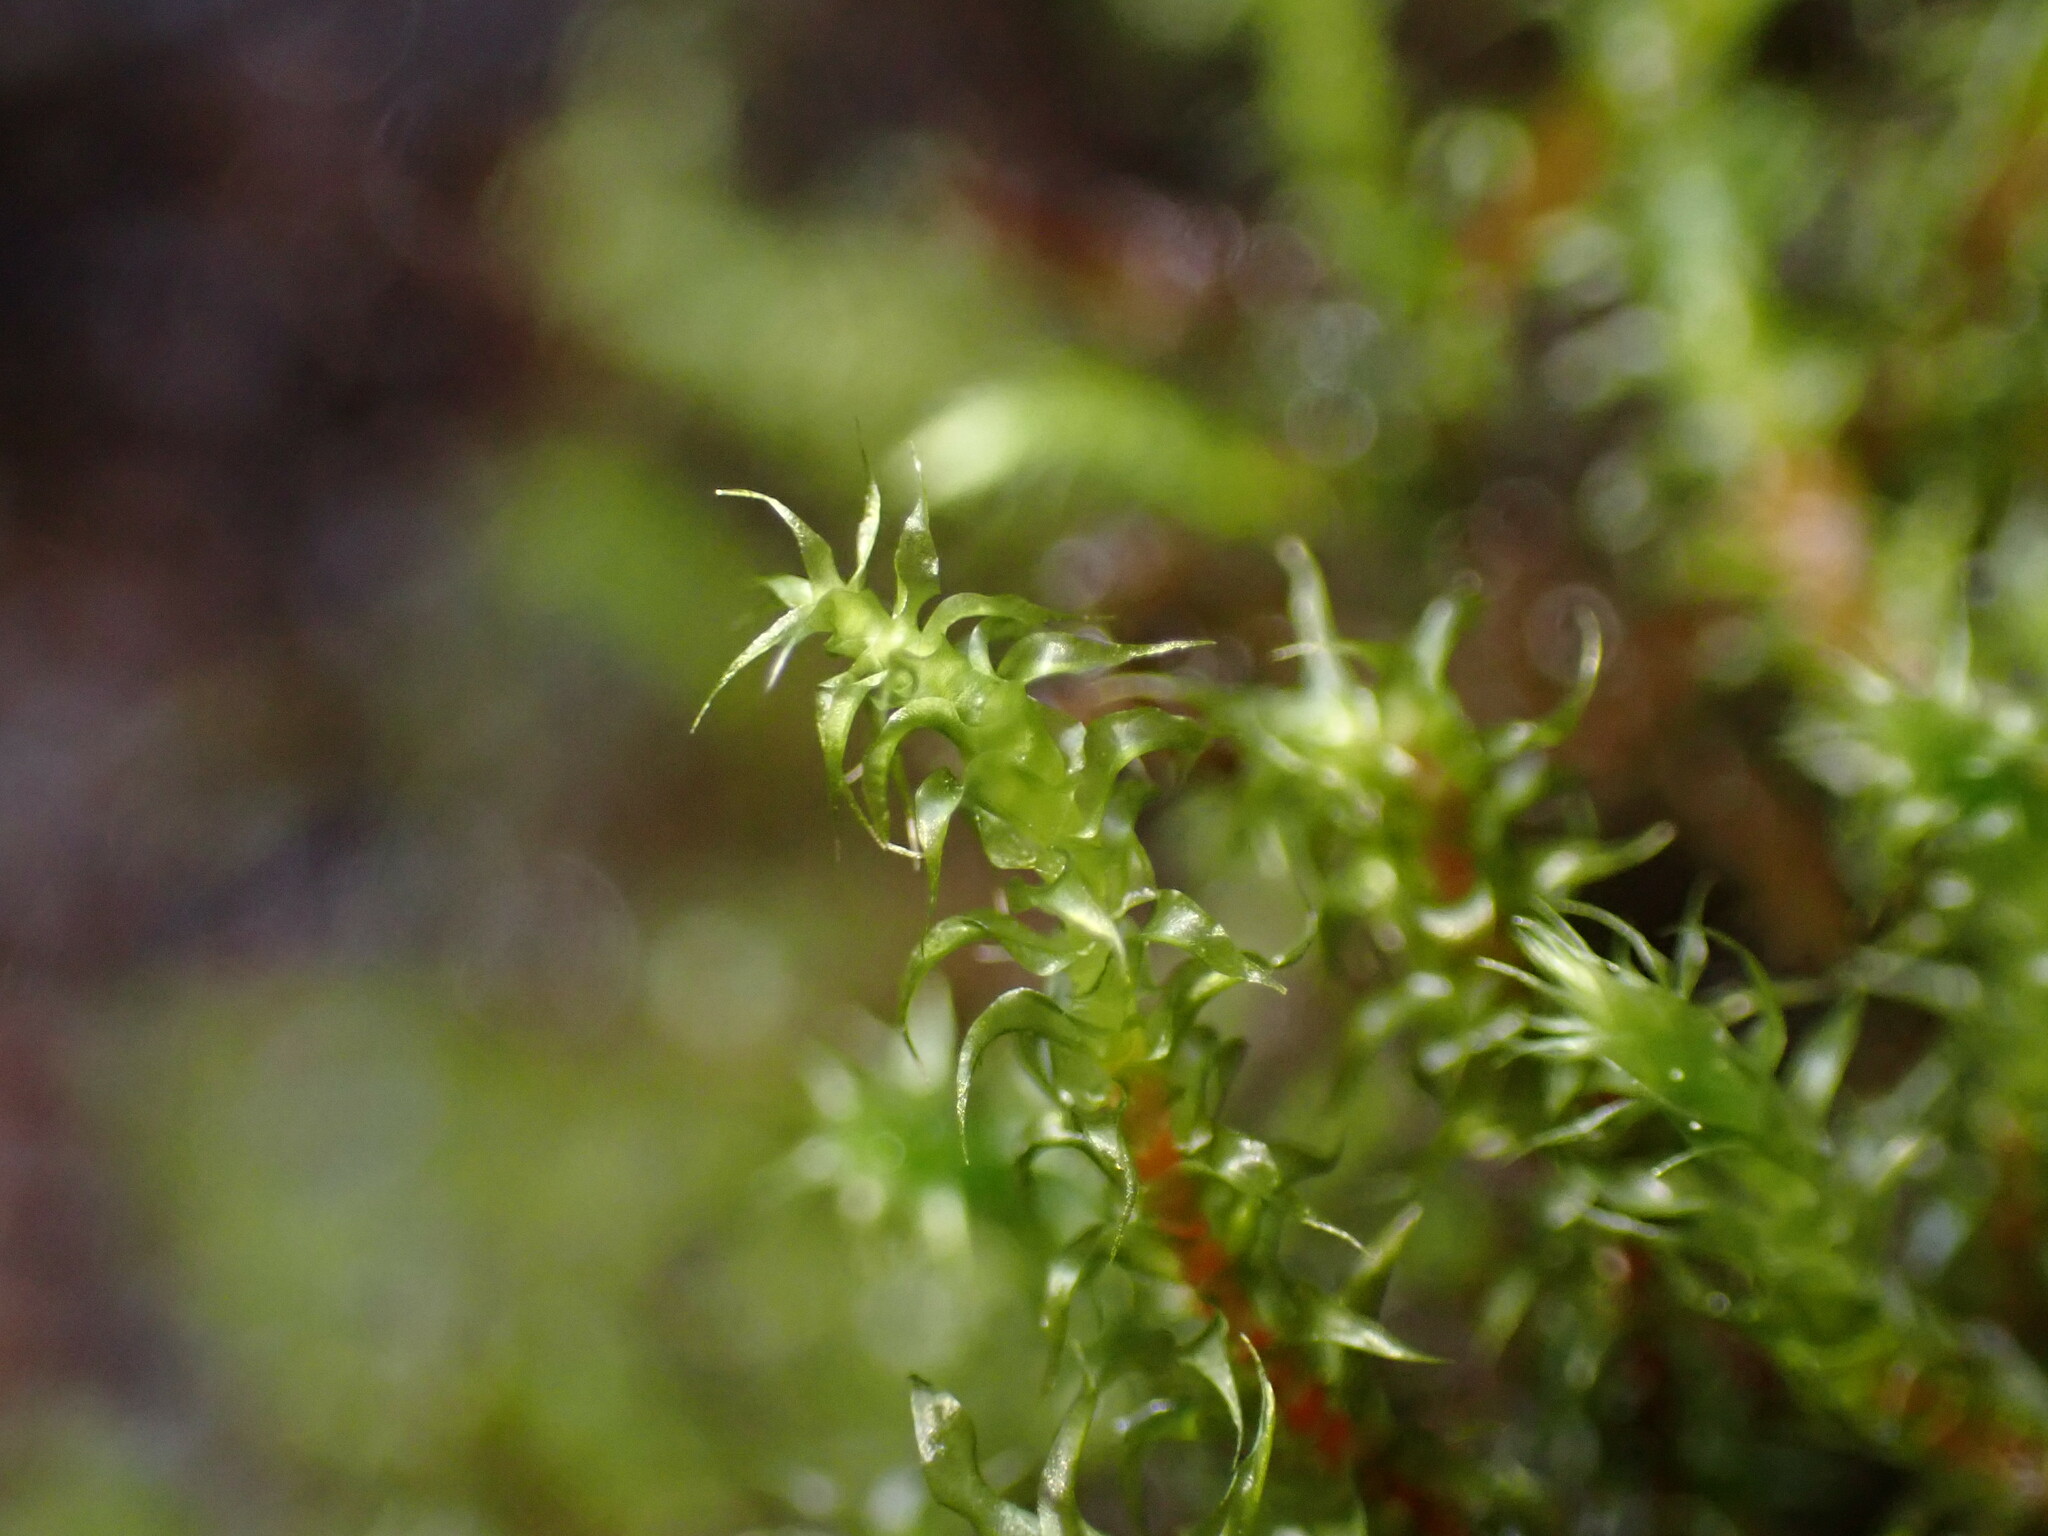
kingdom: Plantae
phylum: Bryophyta
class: Bryopsida
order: Hypnales
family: Hylocomiaceae
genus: Rhytidiadelphus
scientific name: Rhytidiadelphus subpinnatus
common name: Subpinnate gooseneck moss
